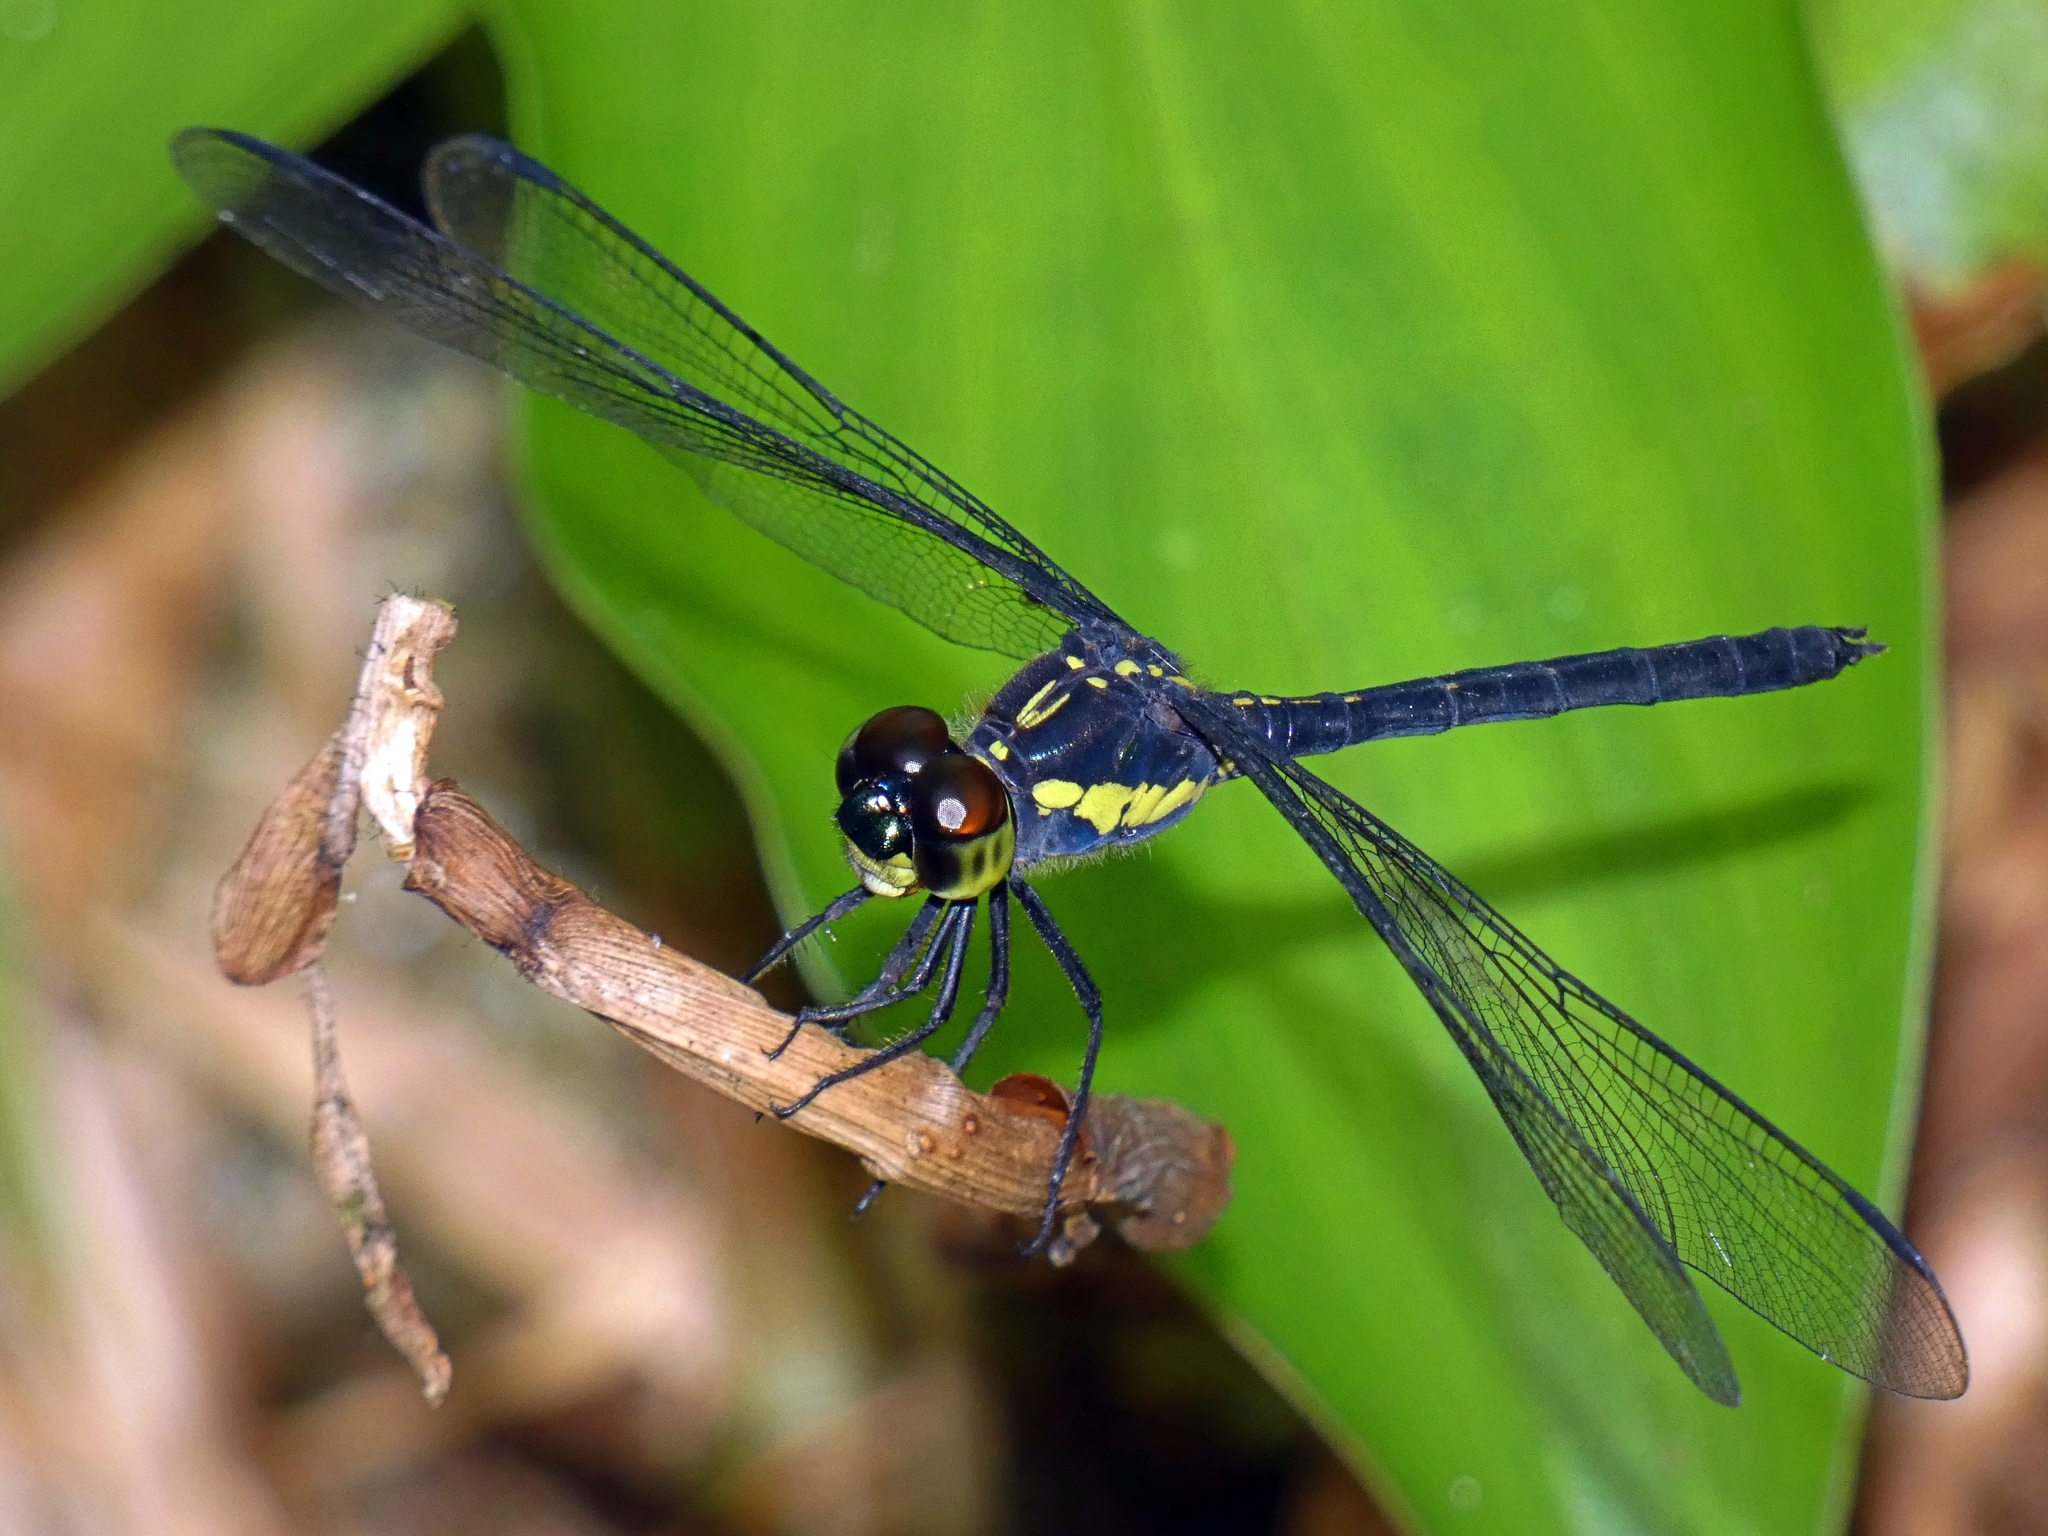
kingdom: Animalia
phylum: Arthropoda
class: Insecta
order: Odonata
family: Libellulidae
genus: Agrionoptera
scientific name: Agrionoptera longitudinalis
